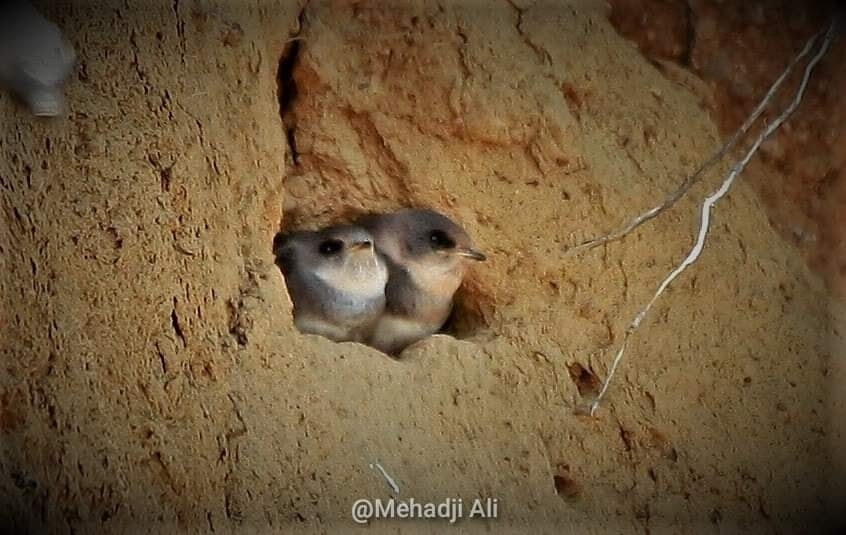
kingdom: Animalia
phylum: Chordata
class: Aves
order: Passeriformes
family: Hirundinidae
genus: Riparia
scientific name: Riparia riparia
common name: Sand martin
